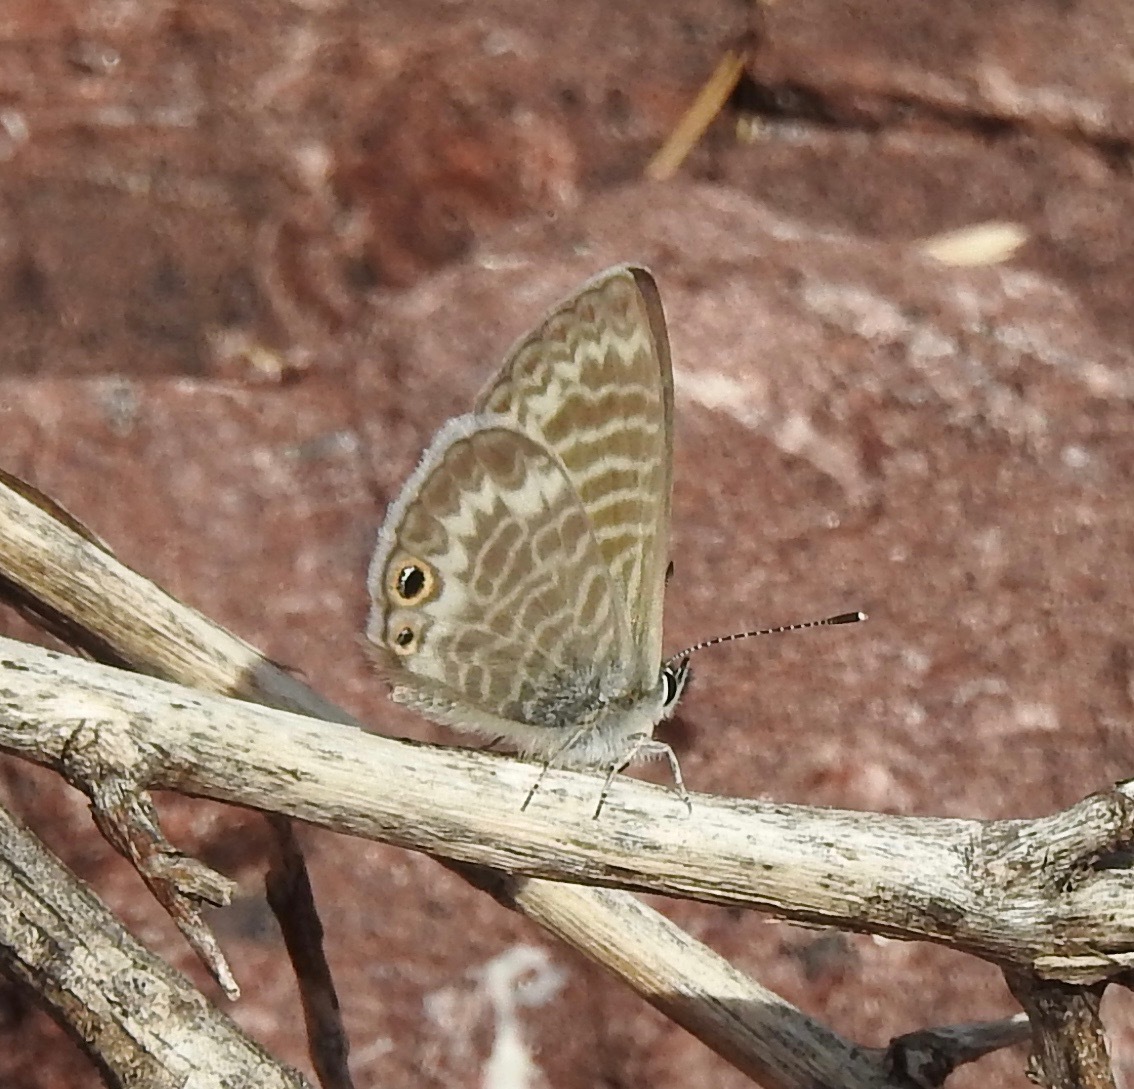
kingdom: Animalia
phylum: Arthropoda
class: Insecta
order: Lepidoptera
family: Lycaenidae
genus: Leptotes
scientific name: Leptotes marina
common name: Marine blue
